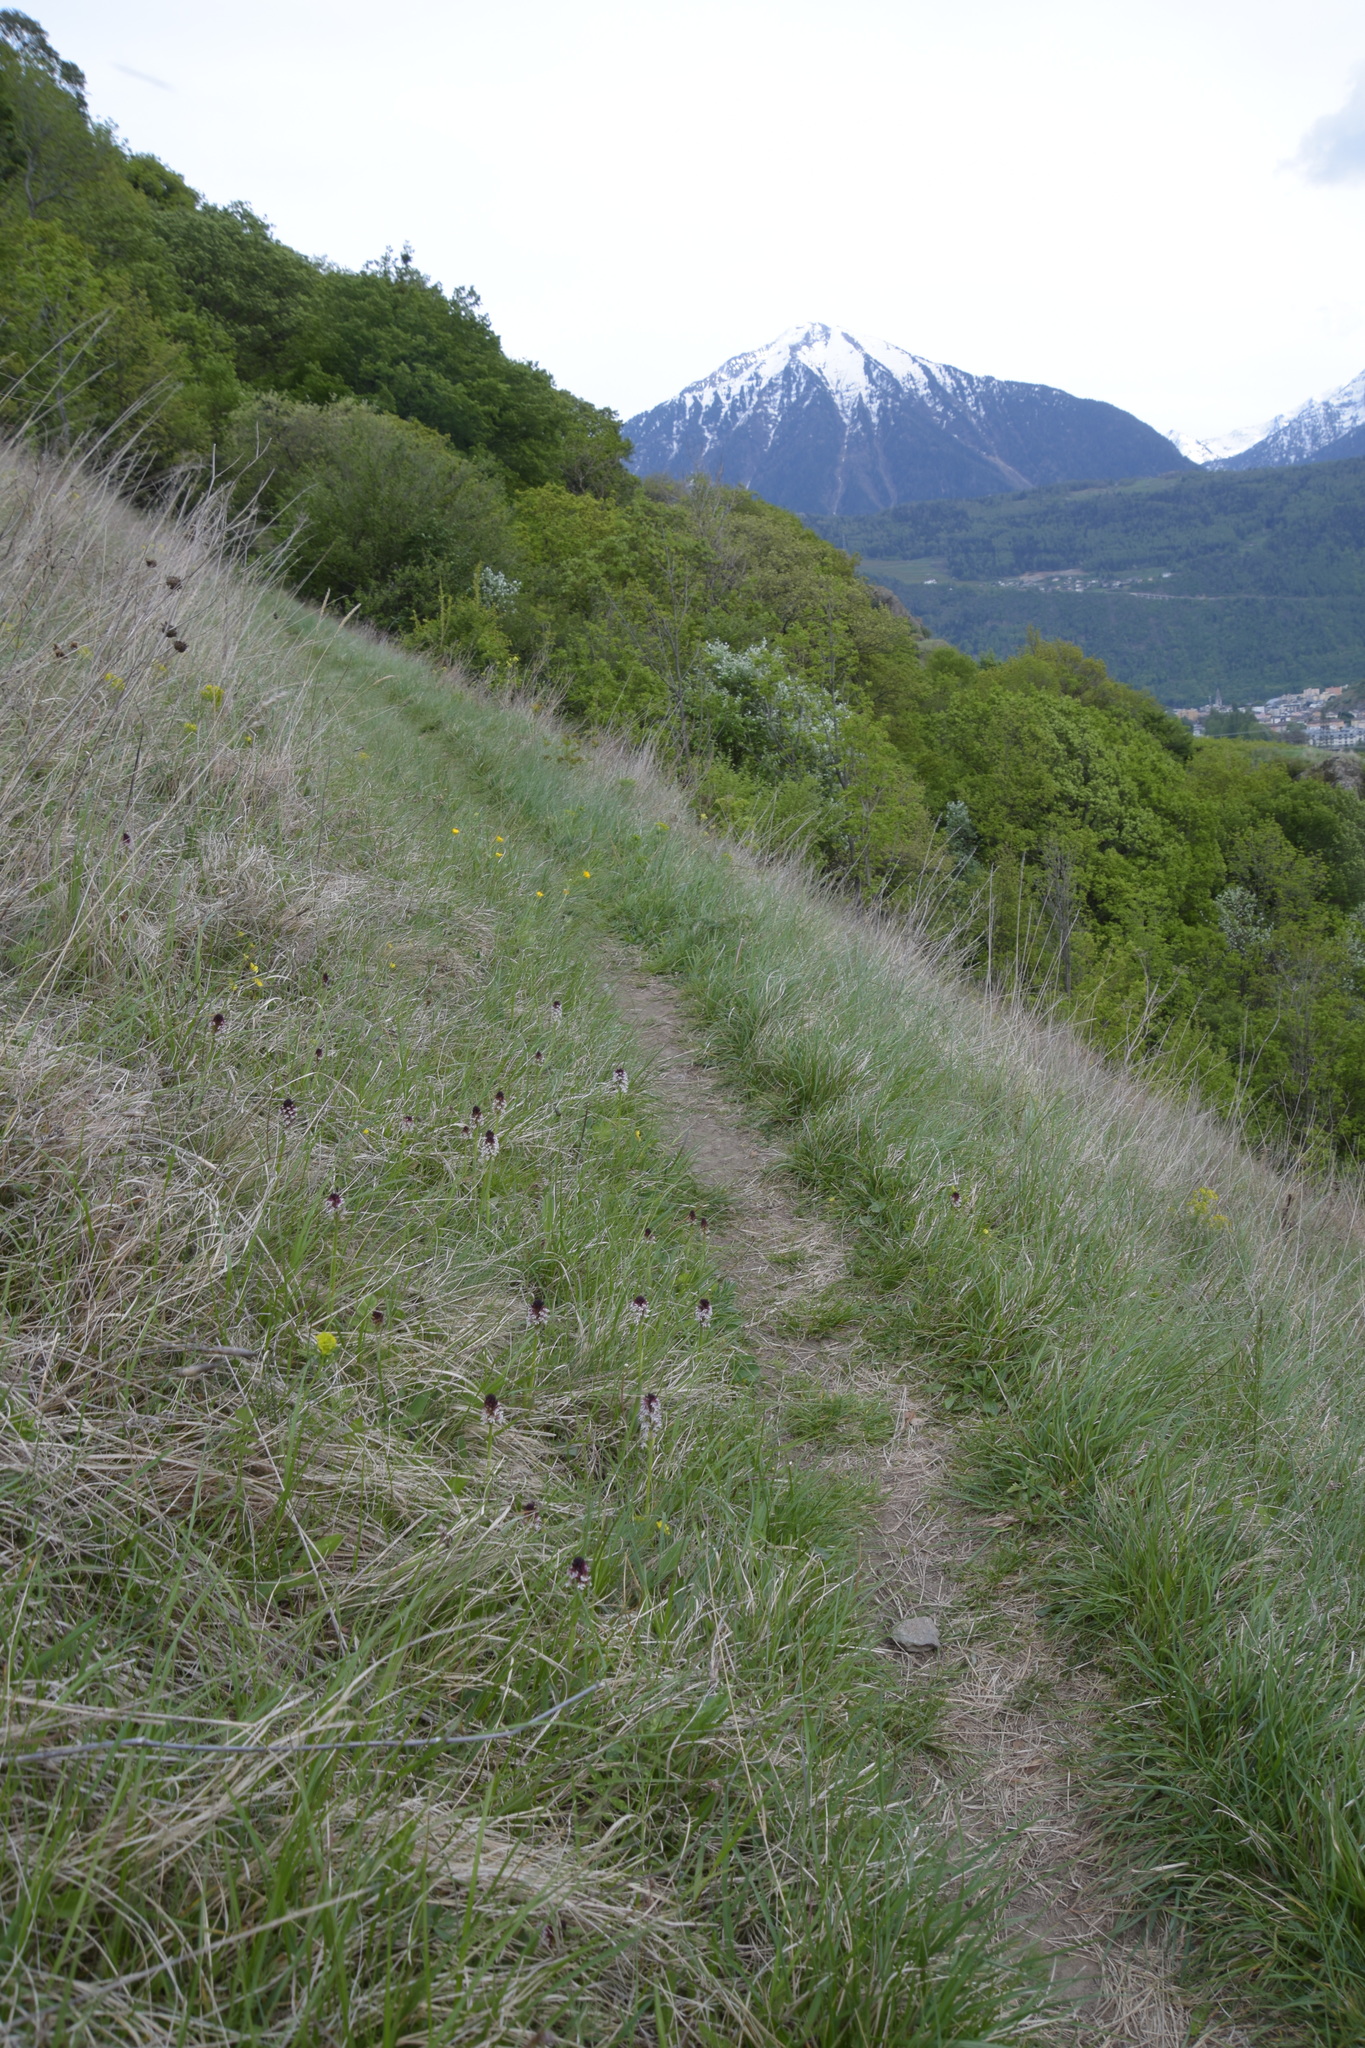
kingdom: Plantae
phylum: Tracheophyta
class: Liliopsida
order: Asparagales
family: Orchidaceae
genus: Neotinea
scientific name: Neotinea ustulata
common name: Burnt orchid
